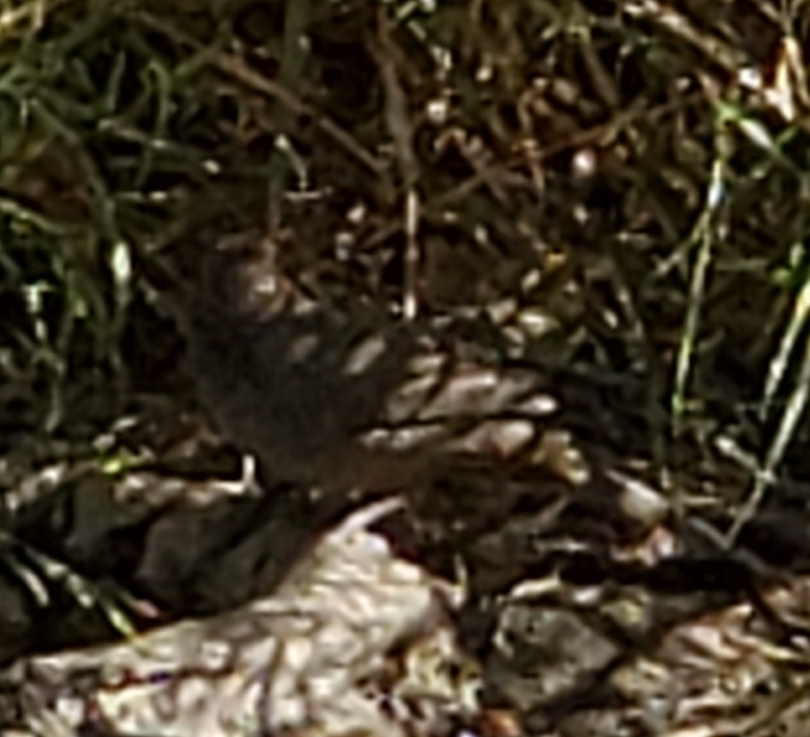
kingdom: Animalia
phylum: Chordata
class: Aves
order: Passeriformes
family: Passerellidae
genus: Melozone
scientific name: Melozone crissalis
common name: California towhee
